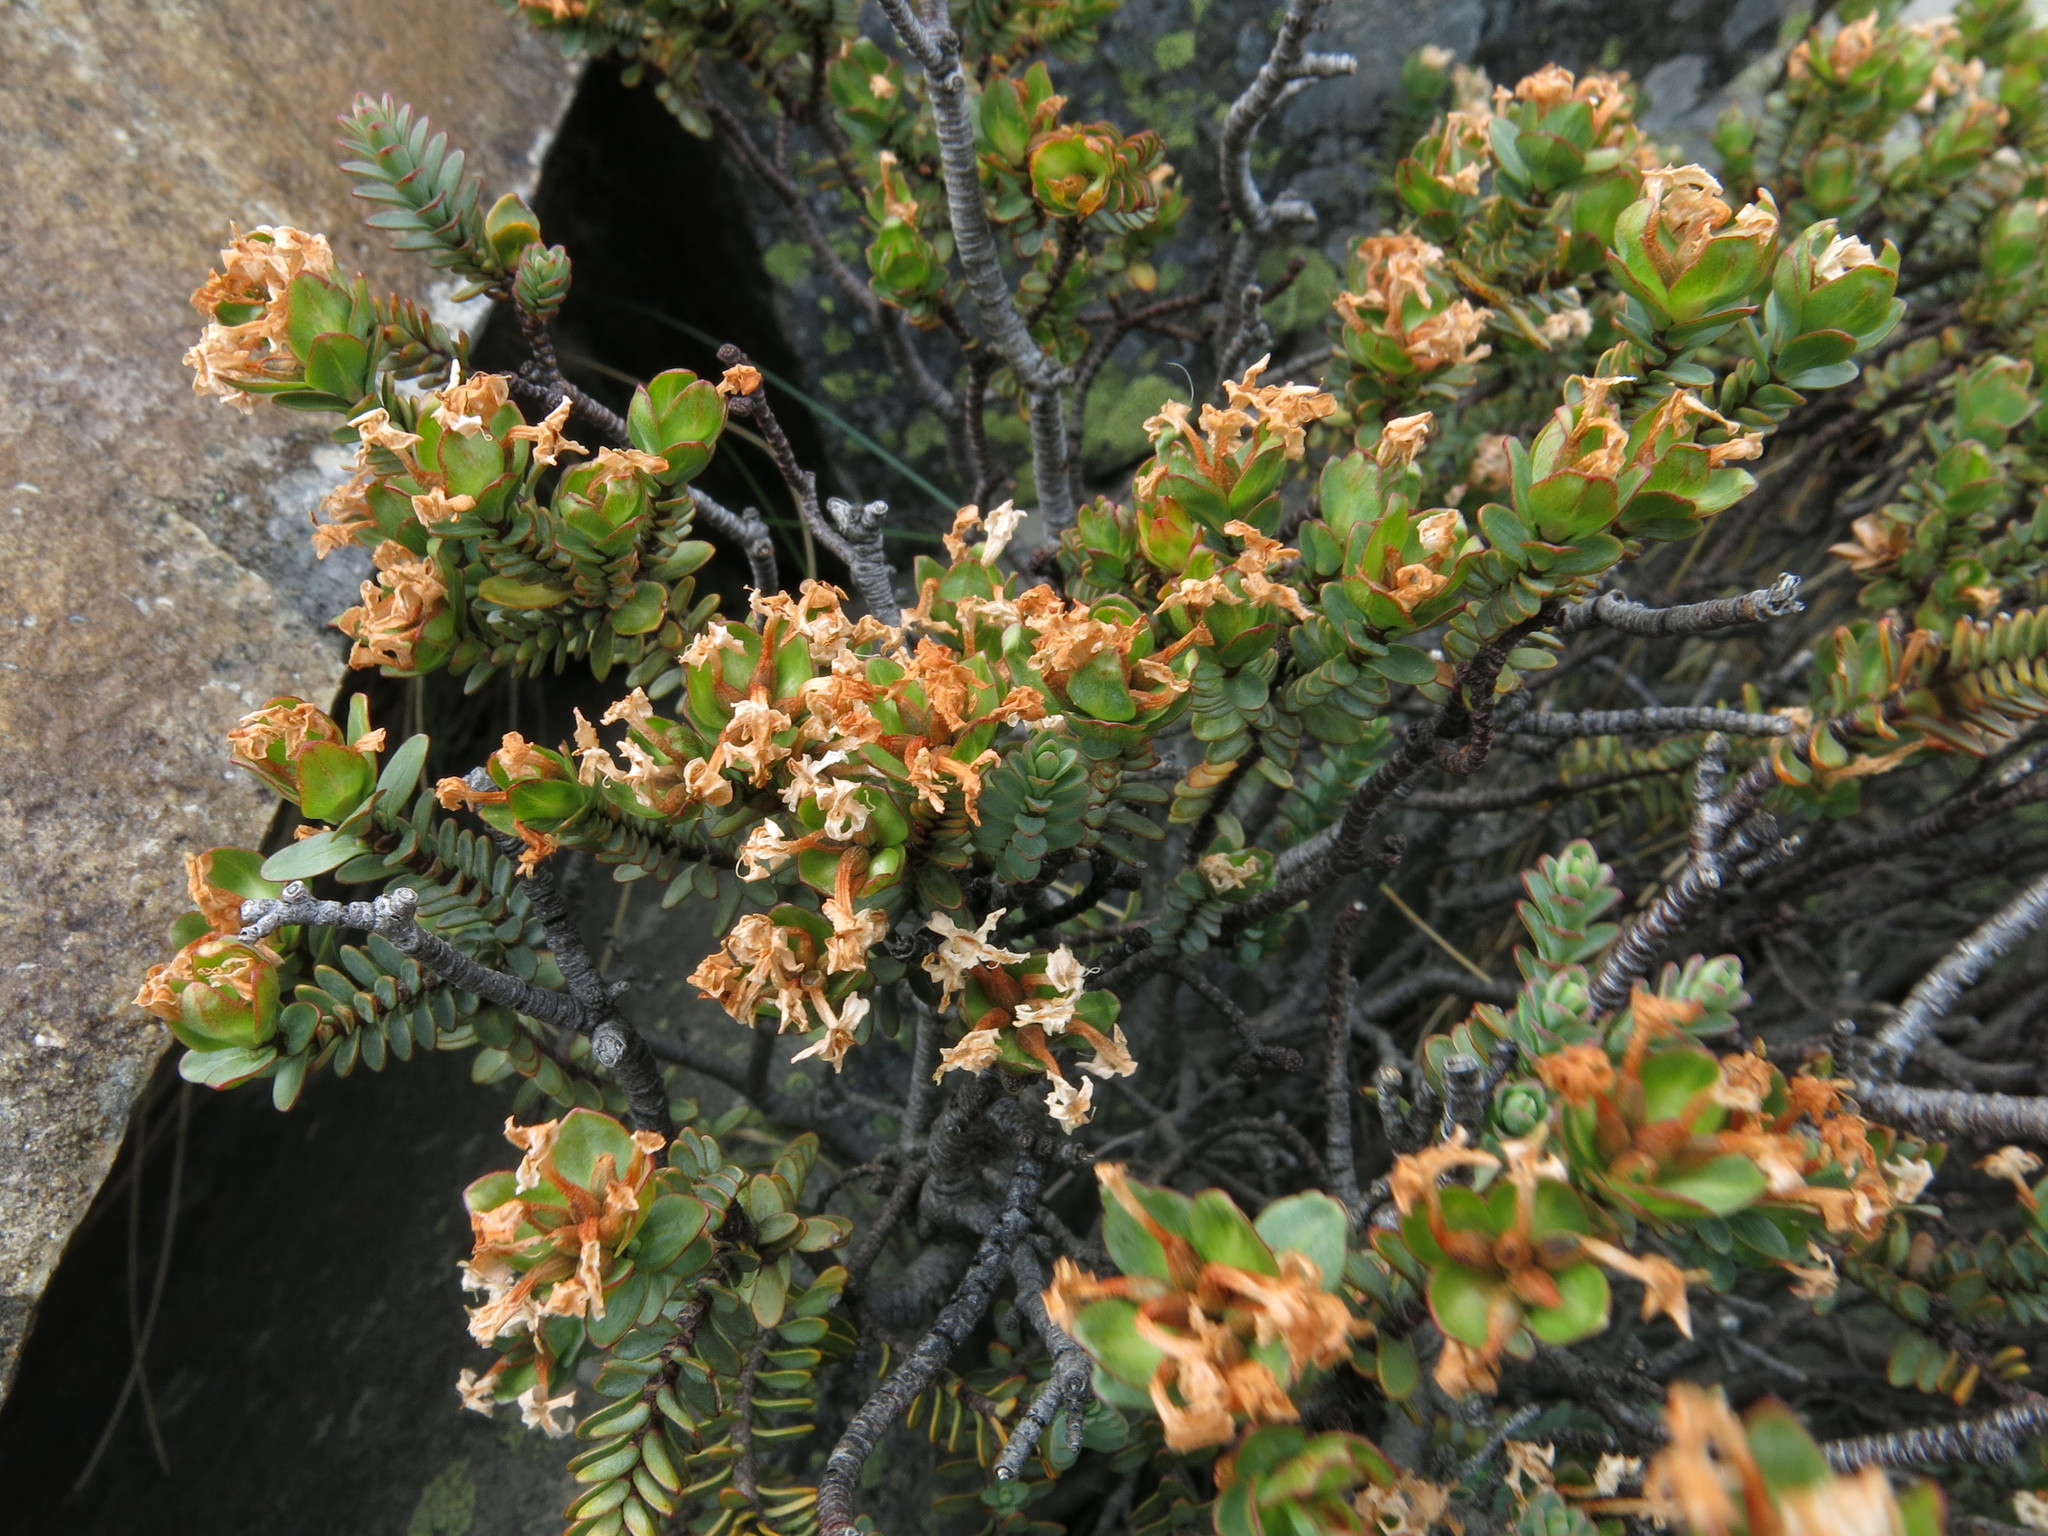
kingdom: Plantae
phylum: Tracheophyta
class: Magnoliopsida
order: Malvales
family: Thymelaeaceae
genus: Pimelea
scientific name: Pimelea traversii
